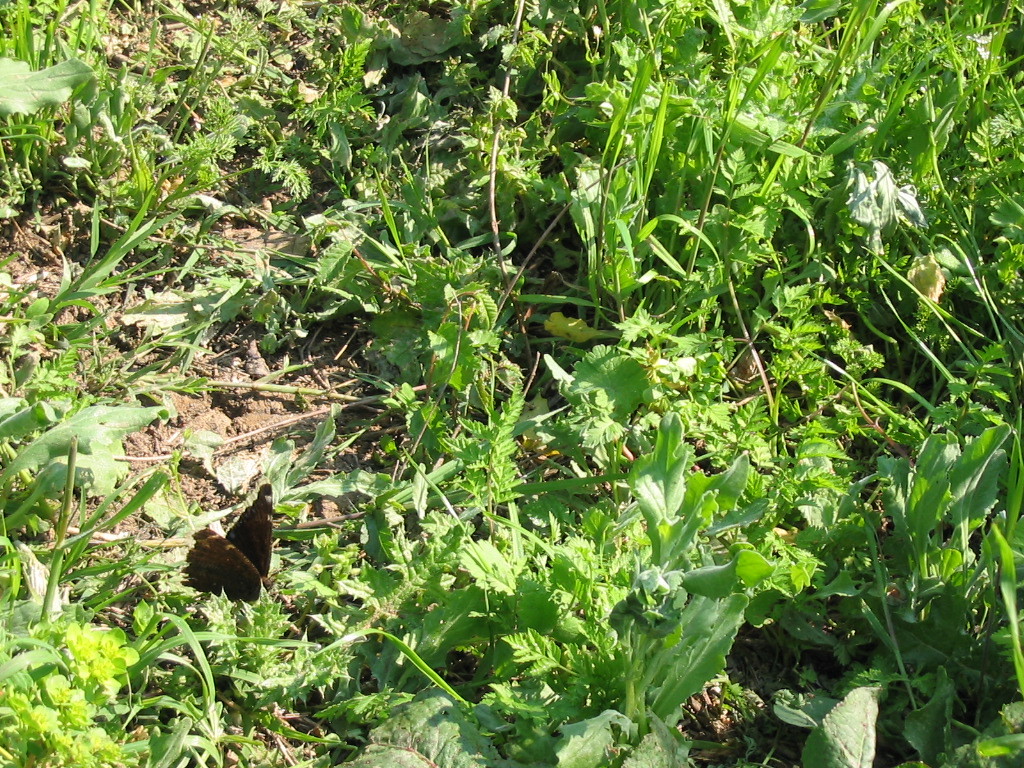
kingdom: Animalia
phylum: Arthropoda
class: Insecta
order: Lepidoptera
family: Nymphalidae
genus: Nymphalis
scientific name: Nymphalis antiopa
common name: Camberwell beauty
